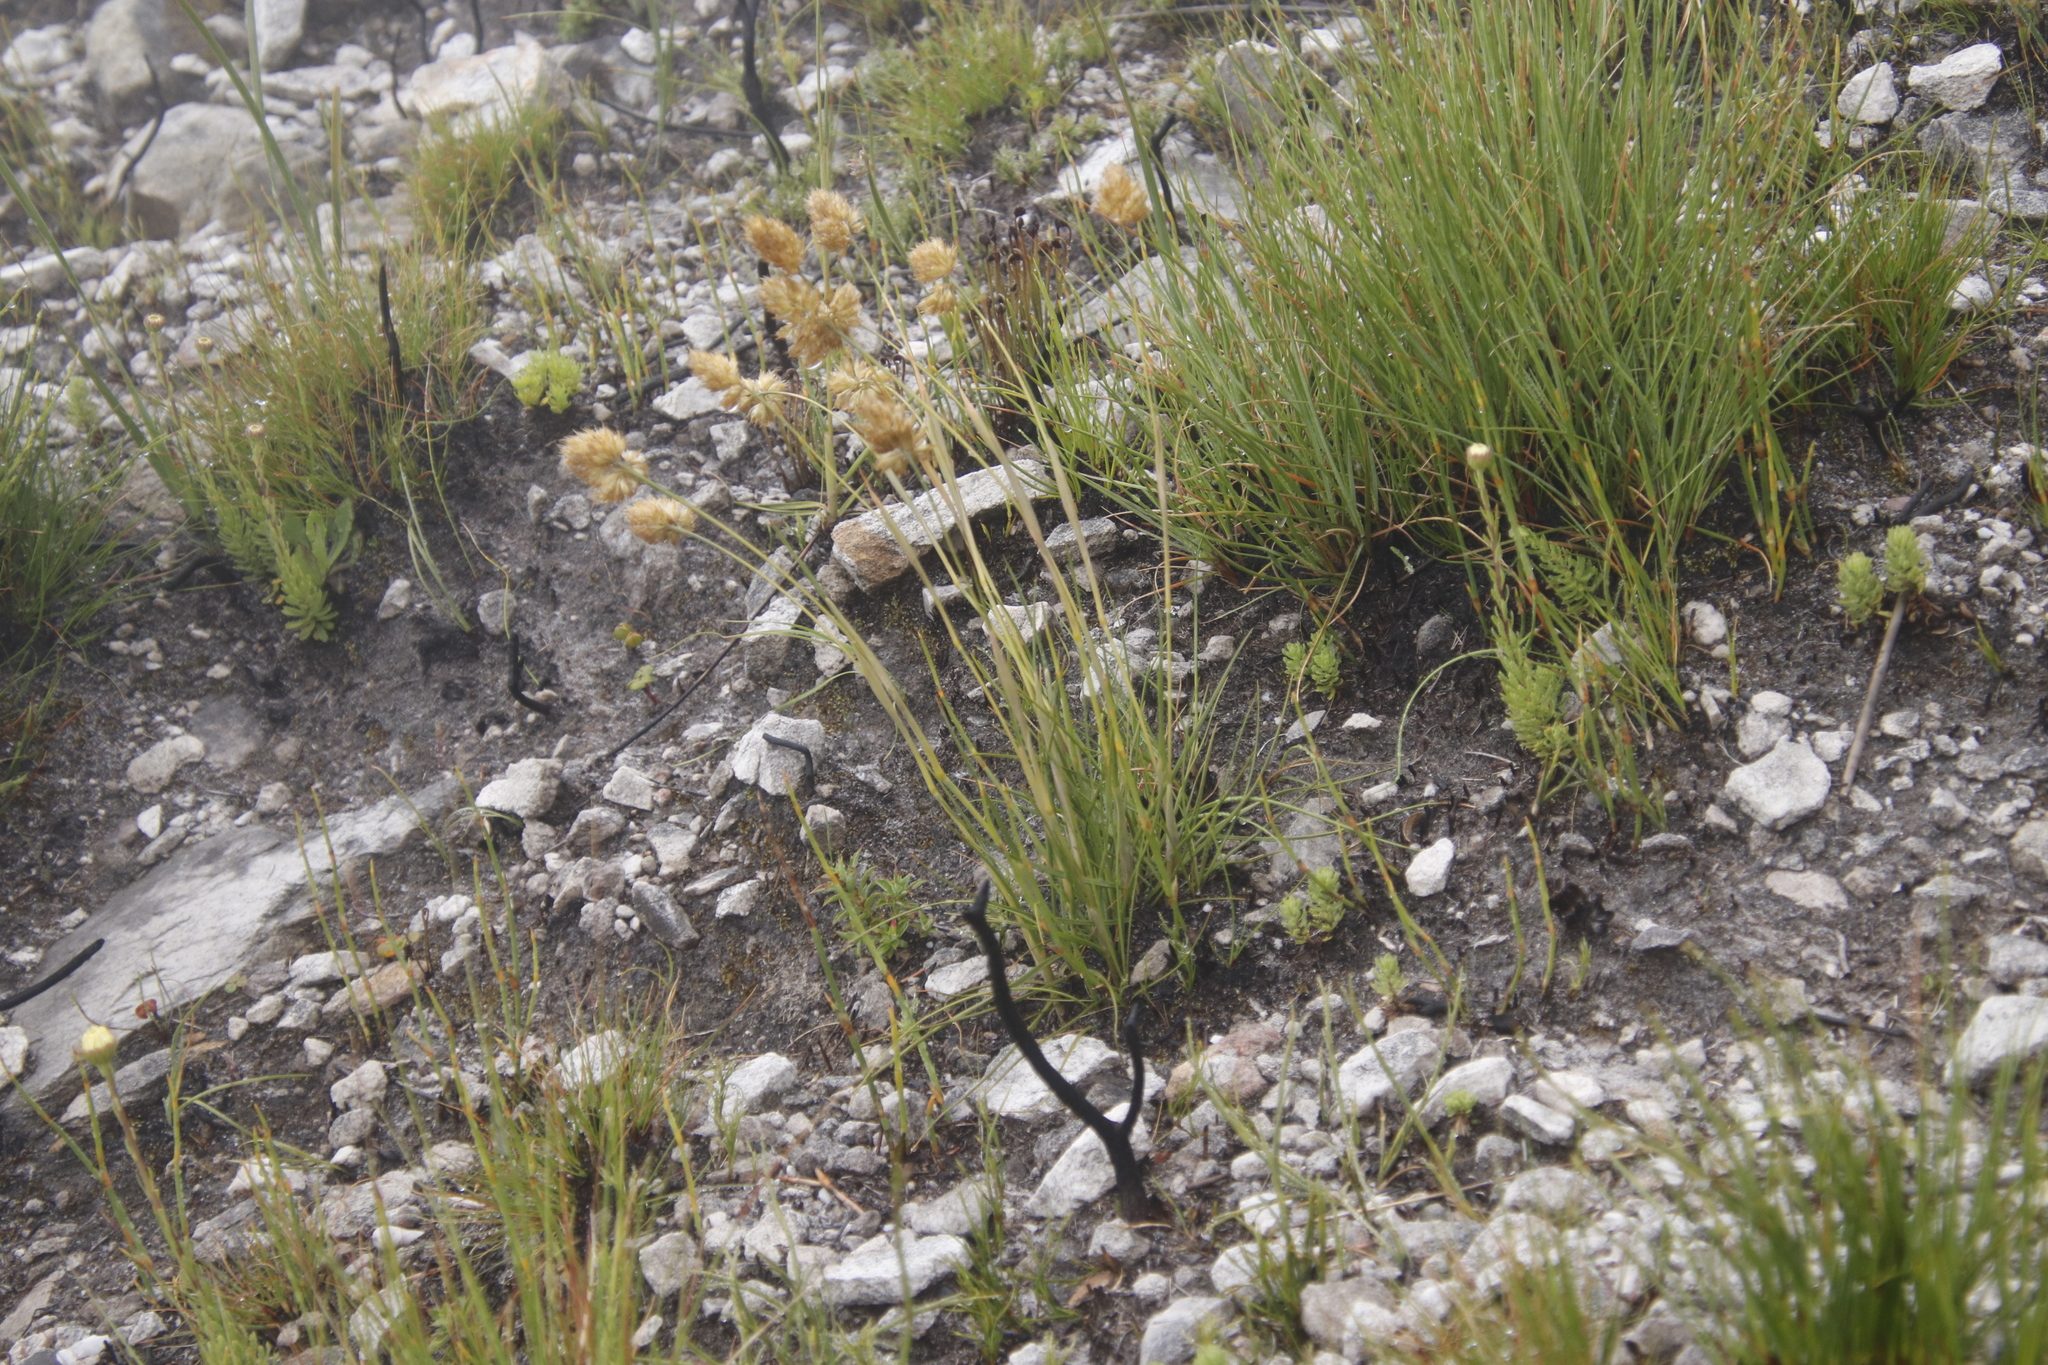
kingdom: Plantae
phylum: Tracheophyta
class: Liliopsida
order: Poales
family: Poaceae
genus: Geochloa
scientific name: Geochloa rufa
